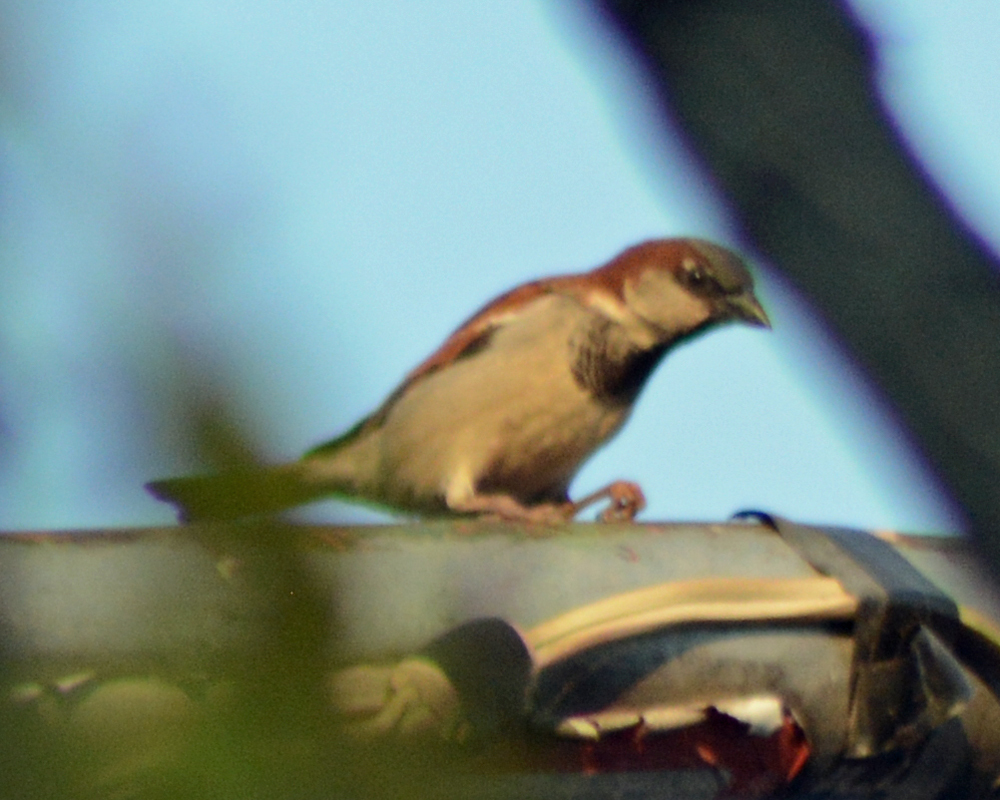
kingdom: Animalia
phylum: Chordata
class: Aves
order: Passeriformes
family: Passeridae
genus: Passer
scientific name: Passer domesticus
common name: House sparrow
